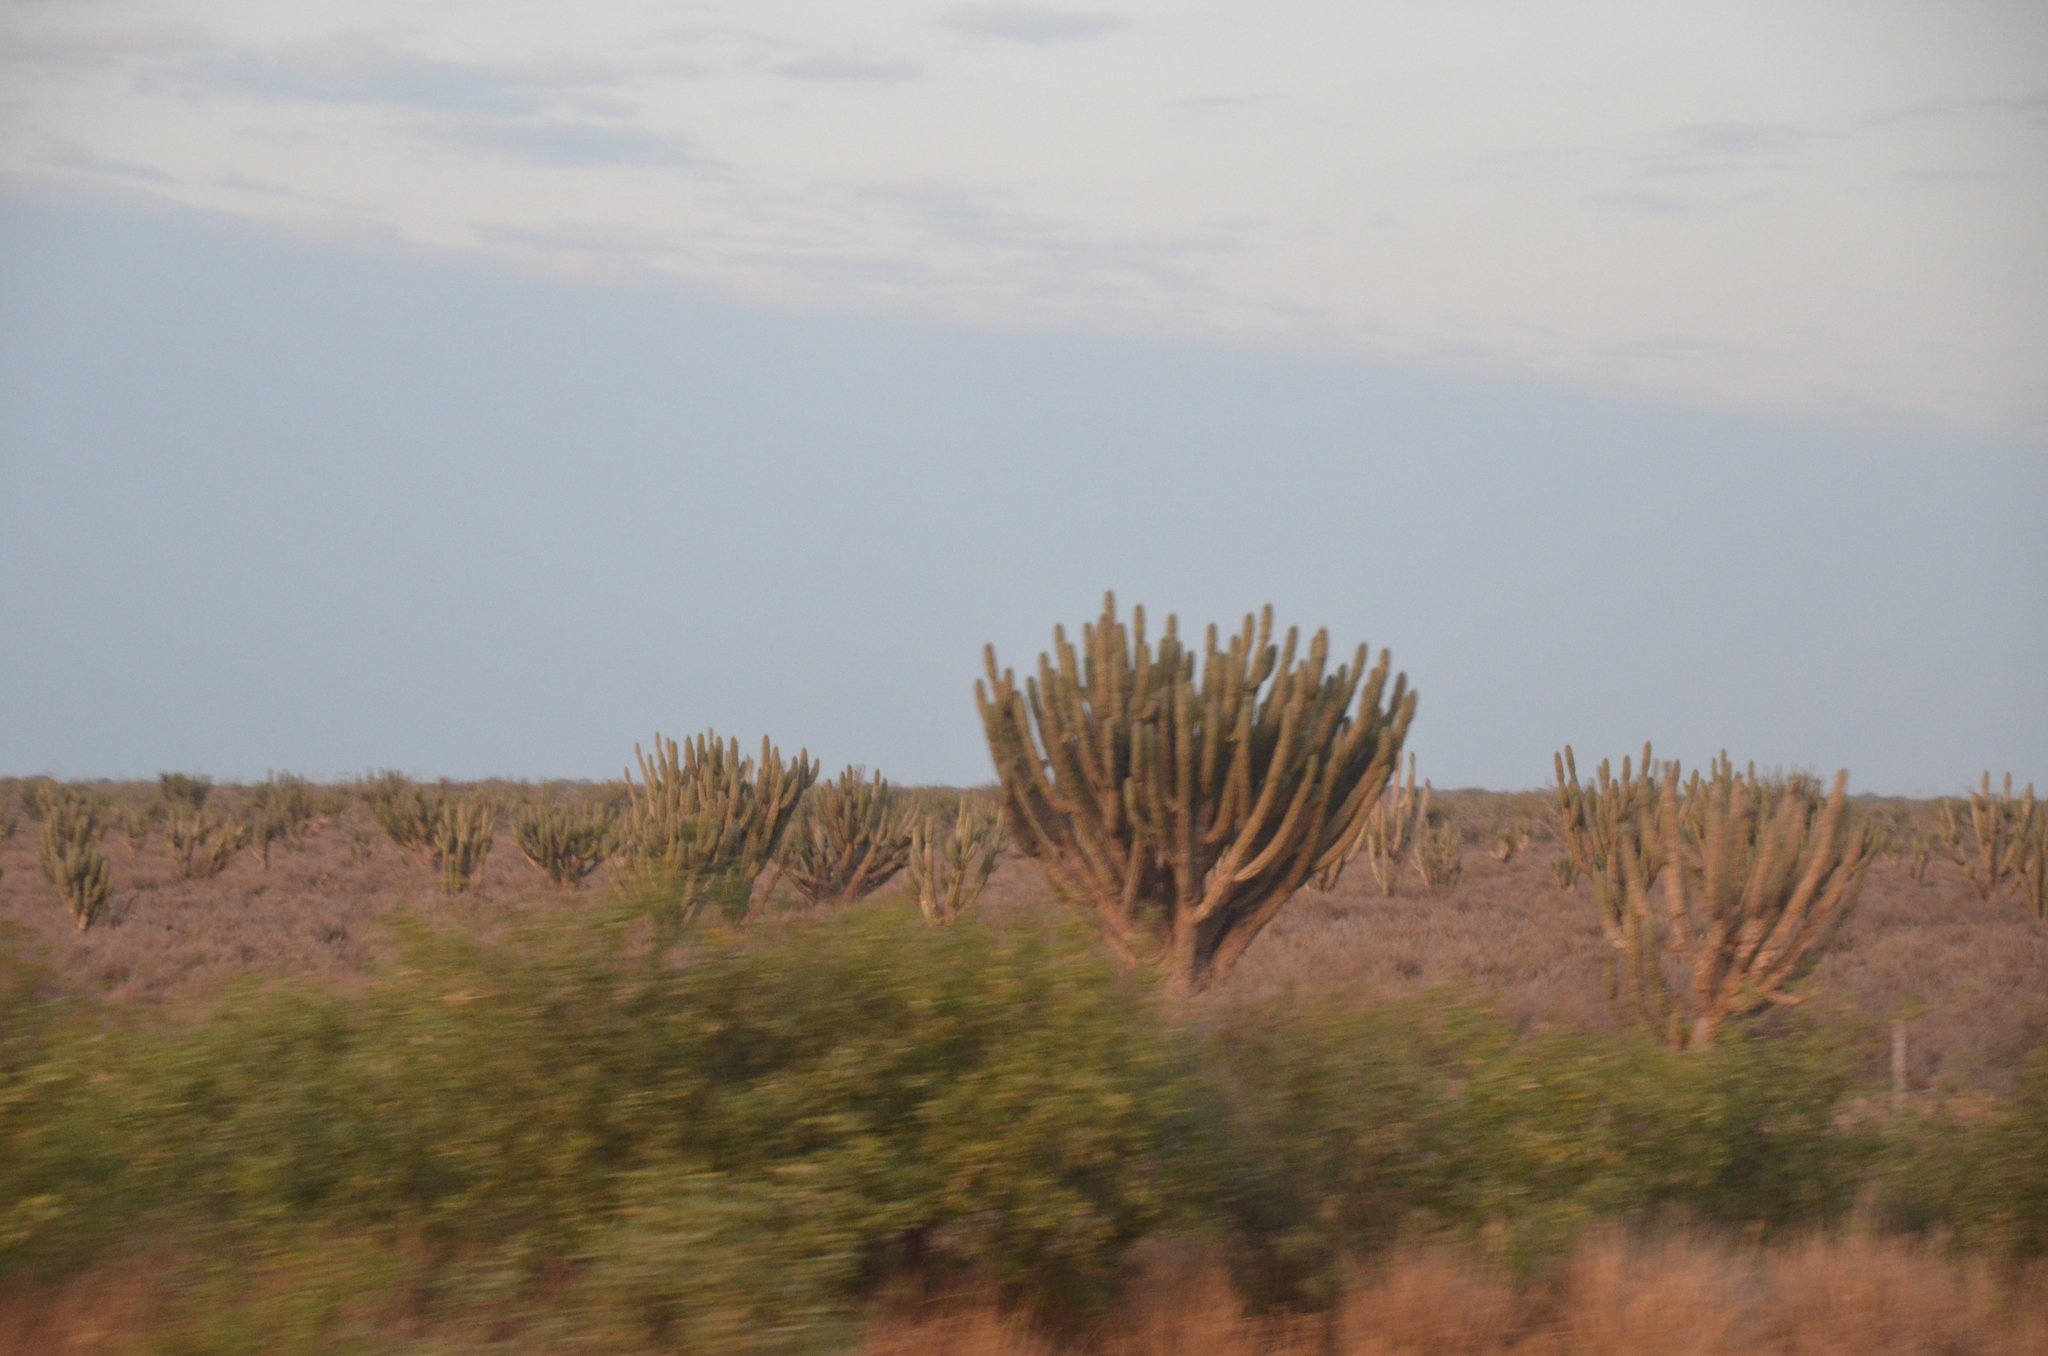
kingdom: Plantae
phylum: Tracheophyta
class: Magnoliopsida
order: Caryophyllales
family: Cactaceae
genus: Stetsonia
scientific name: Stetsonia coryne
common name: Toothpick cactus
